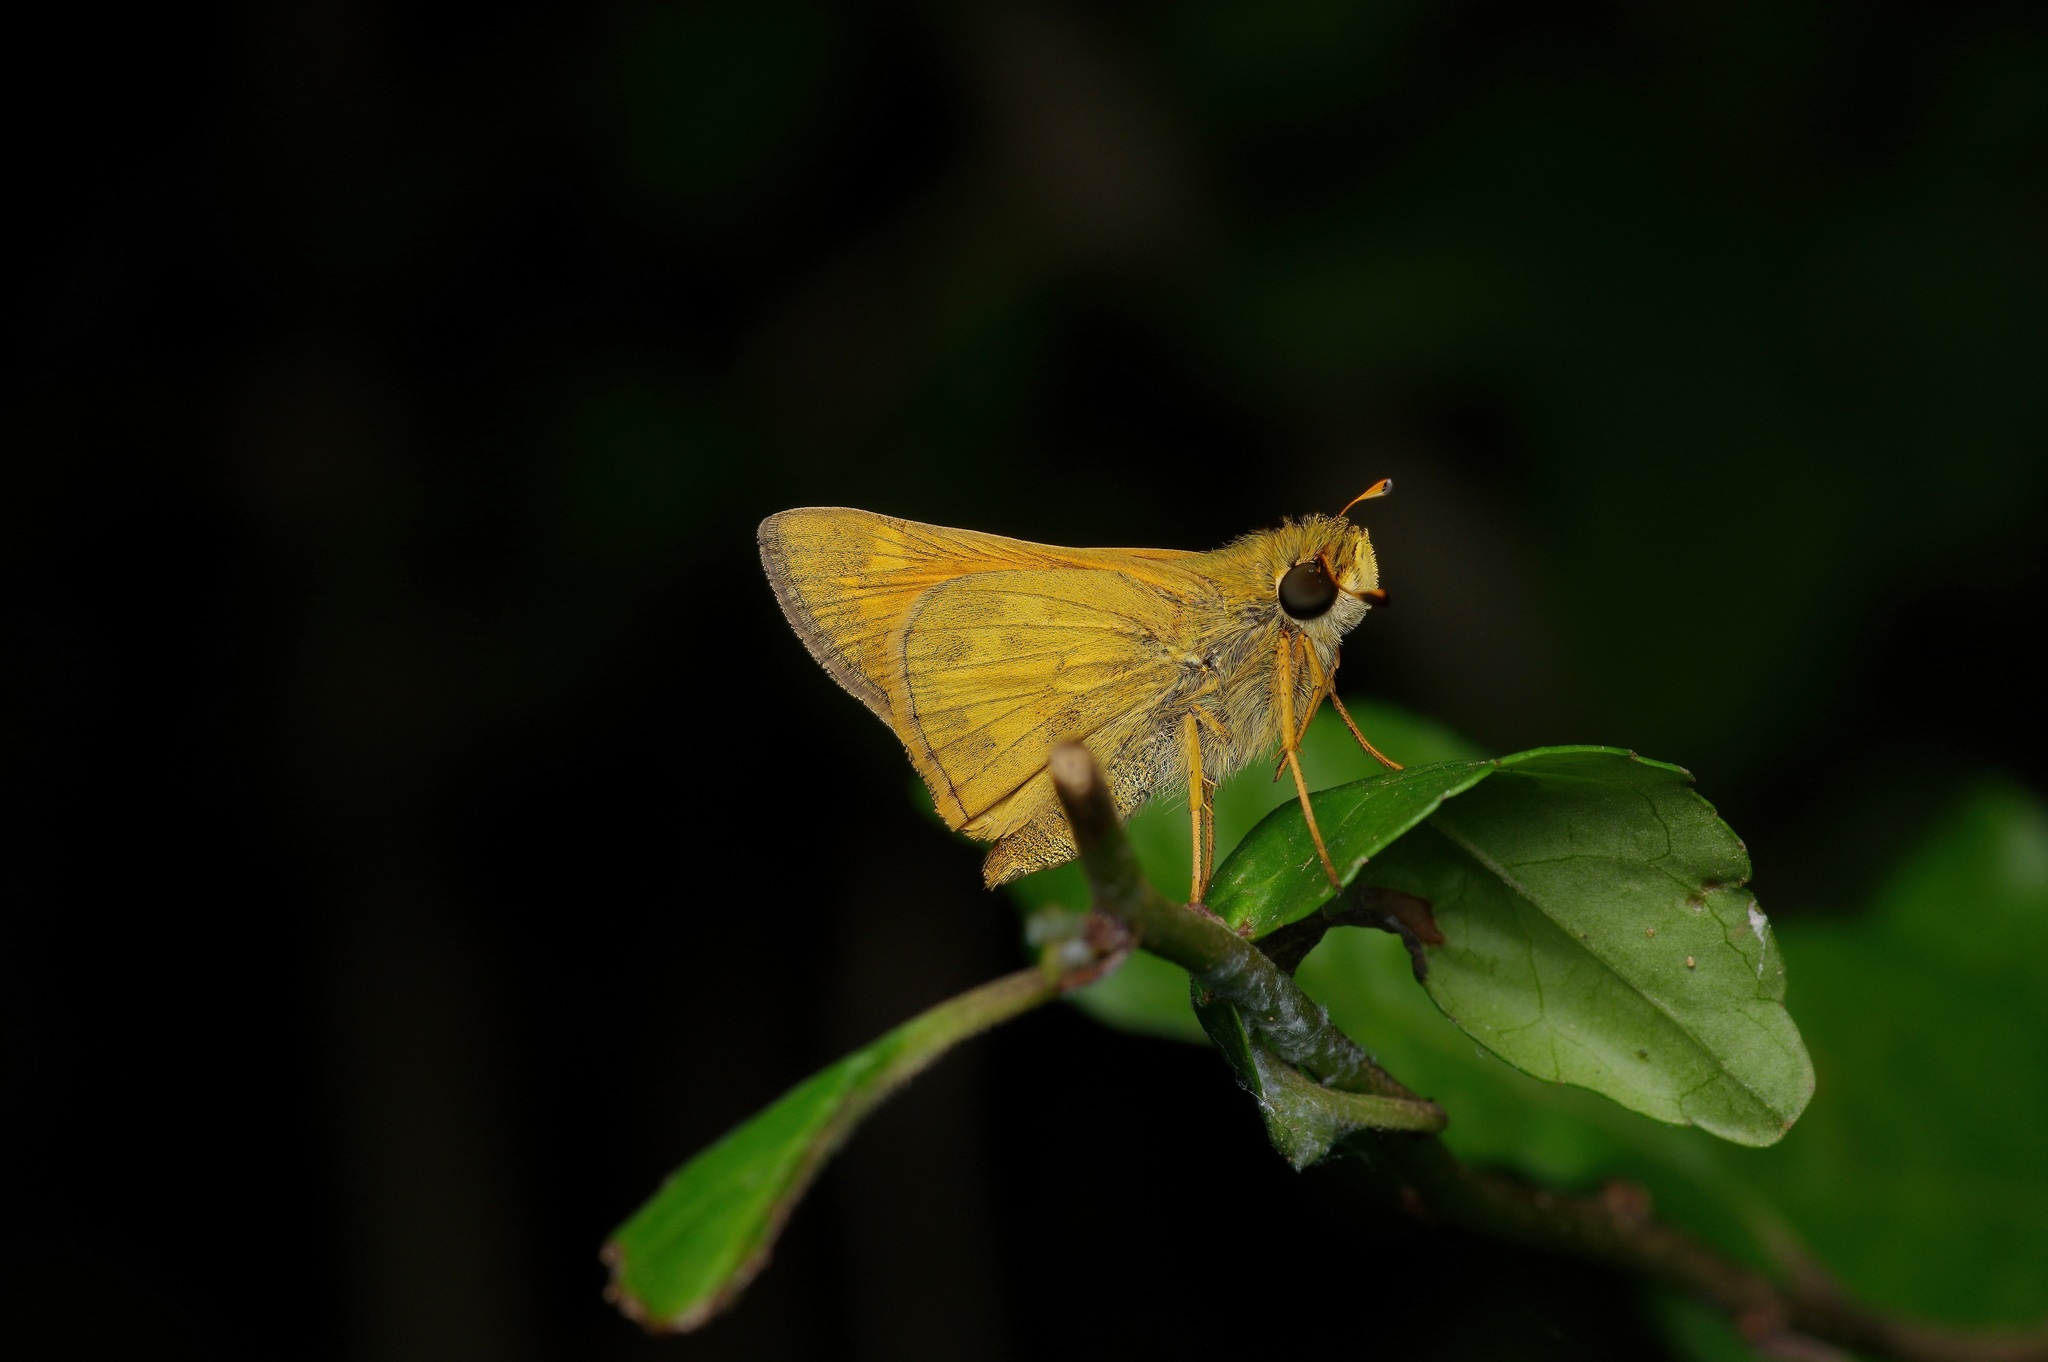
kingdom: Animalia
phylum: Arthropoda
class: Insecta
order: Lepidoptera
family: Hesperiidae
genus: Atalopedes
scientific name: Atalopedes
